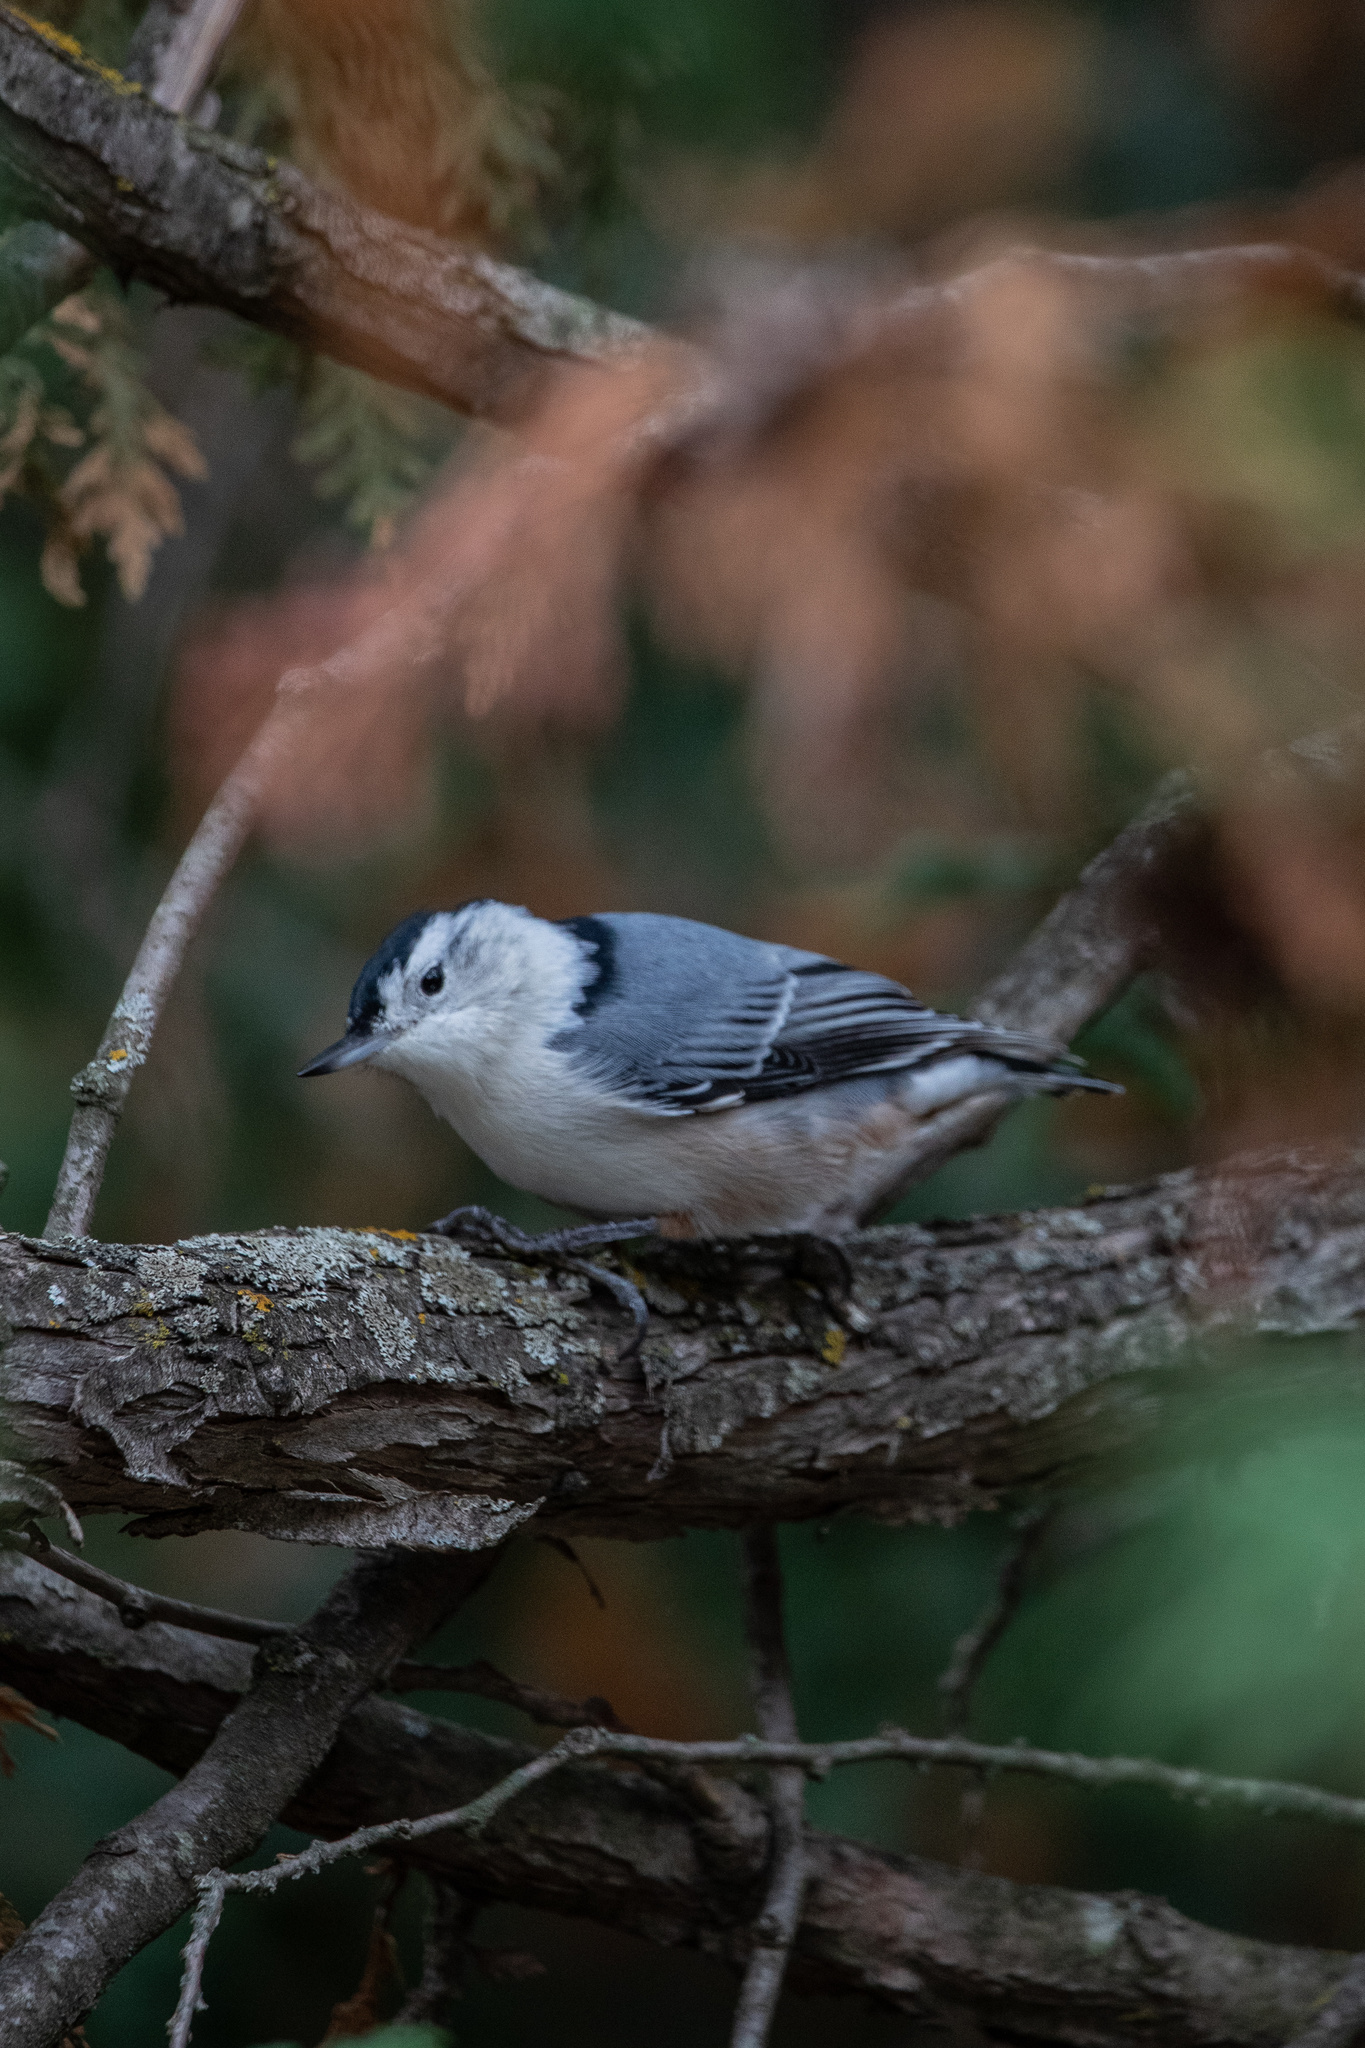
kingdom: Animalia
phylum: Chordata
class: Aves
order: Passeriformes
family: Sittidae
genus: Sitta
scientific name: Sitta carolinensis
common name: White-breasted nuthatch
